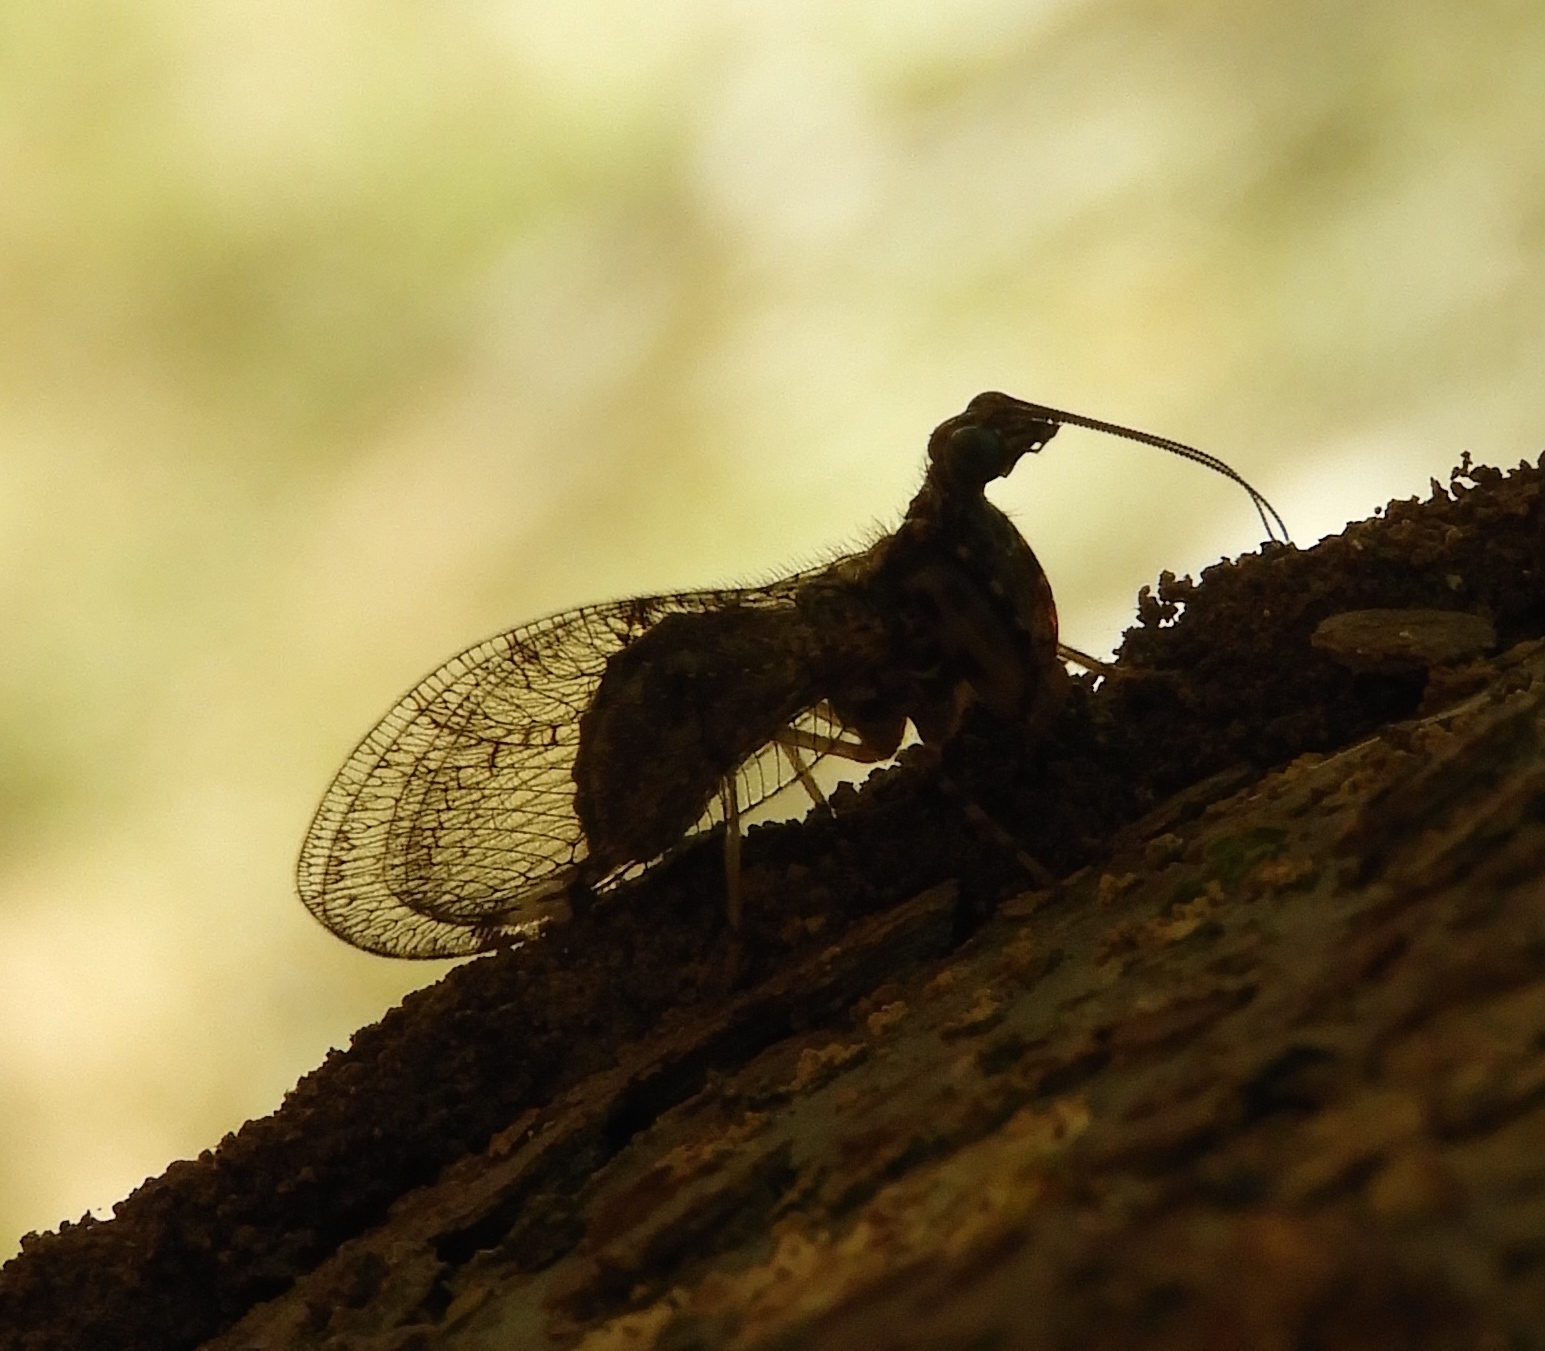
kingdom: Animalia
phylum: Arthropoda
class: Insecta
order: Neuroptera
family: Mantispidae
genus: Plega
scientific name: Plega
